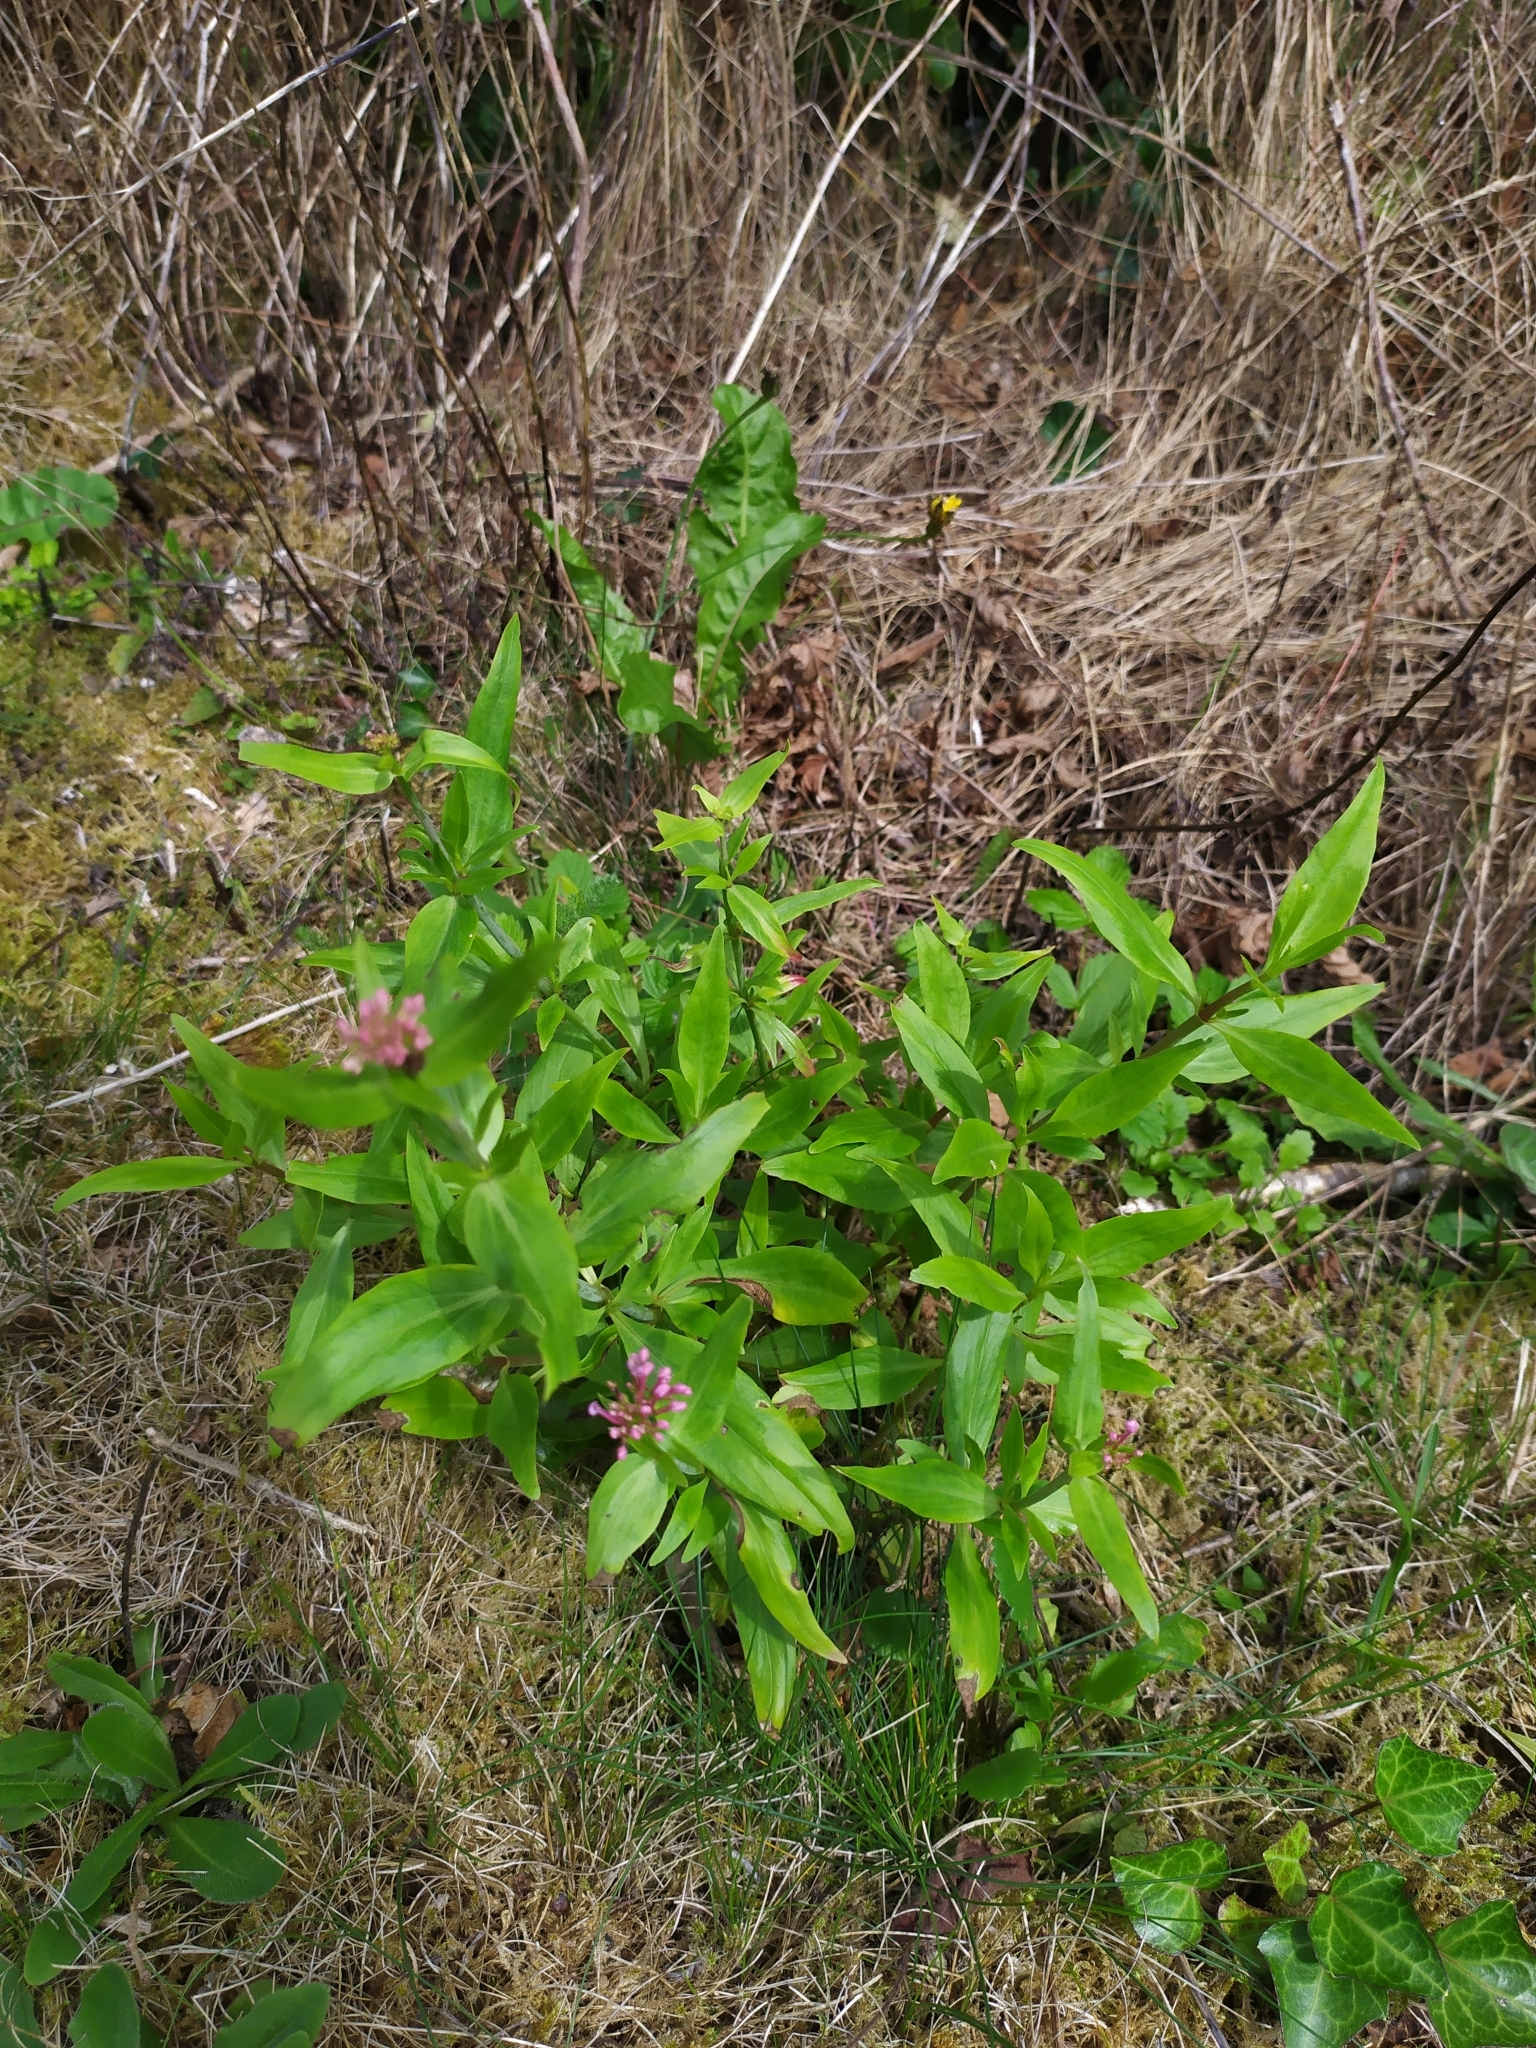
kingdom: Plantae
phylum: Tracheophyta
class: Magnoliopsida
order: Dipsacales
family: Caprifoliaceae
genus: Centranthus
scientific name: Centranthus ruber
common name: Red valerian
